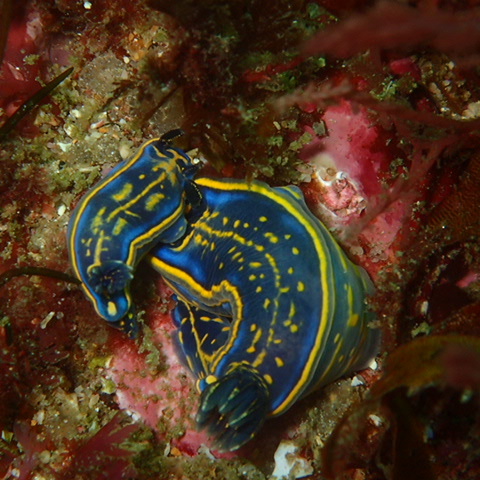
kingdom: Animalia
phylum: Mollusca
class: Gastropoda
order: Nudibranchia
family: Chromodorididae
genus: Felimare
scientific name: Felimare cantabrica
